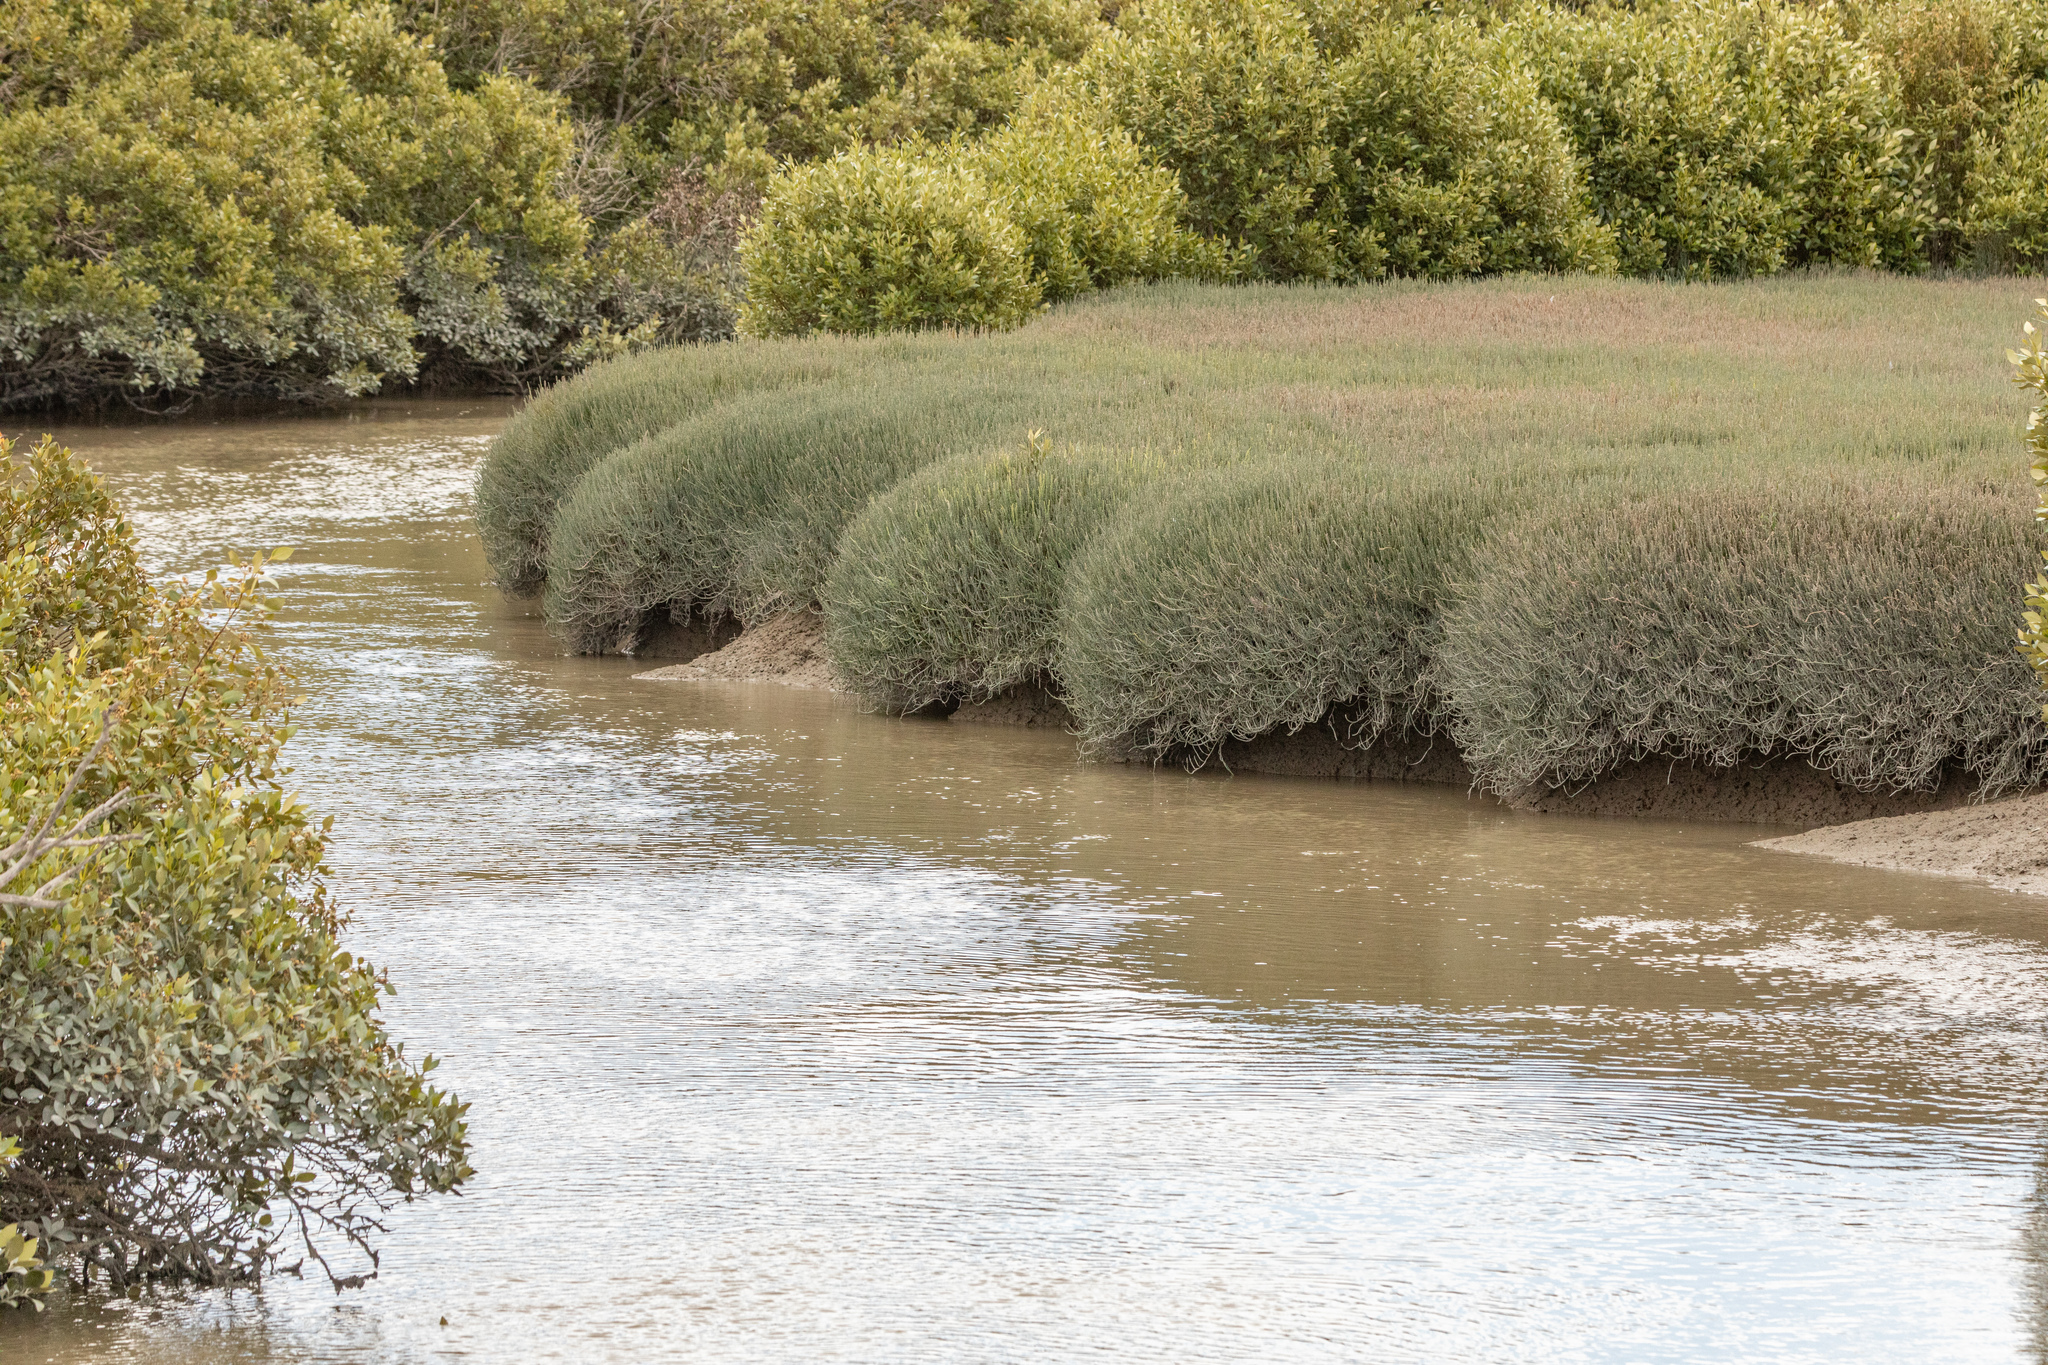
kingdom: Plantae
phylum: Tracheophyta
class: Magnoliopsida
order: Caryophyllales
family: Amaranthaceae
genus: Salicornia
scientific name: Salicornia quinqueflora
